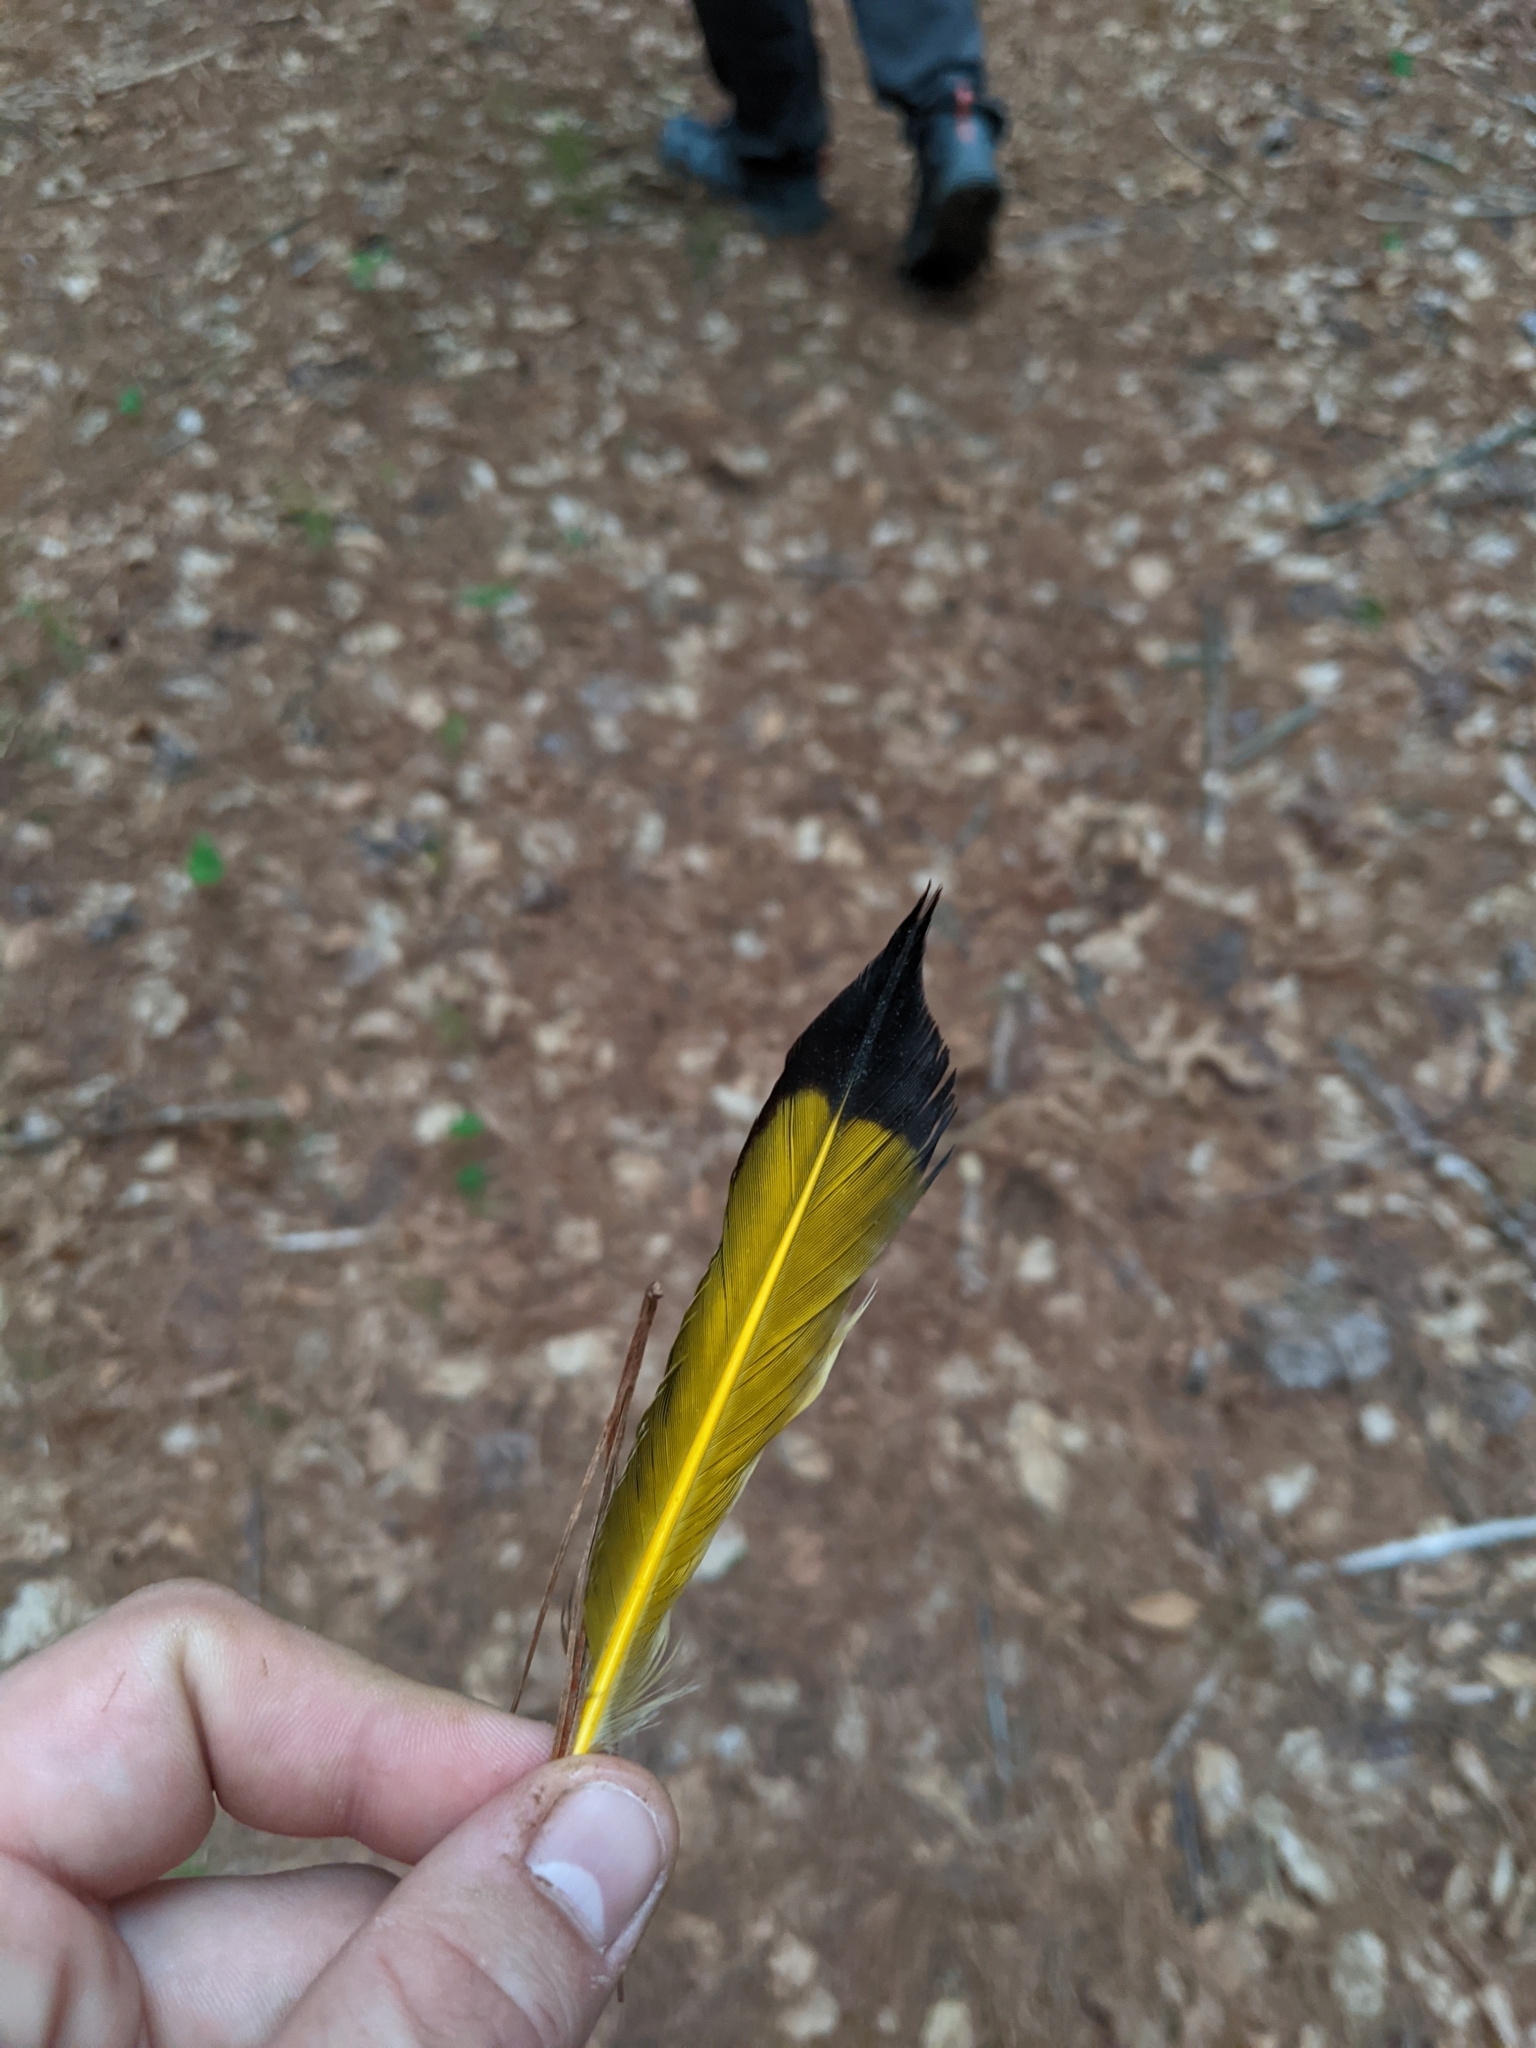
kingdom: Animalia
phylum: Chordata
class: Aves
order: Piciformes
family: Picidae
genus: Colaptes
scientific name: Colaptes auratus
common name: Northern flicker
